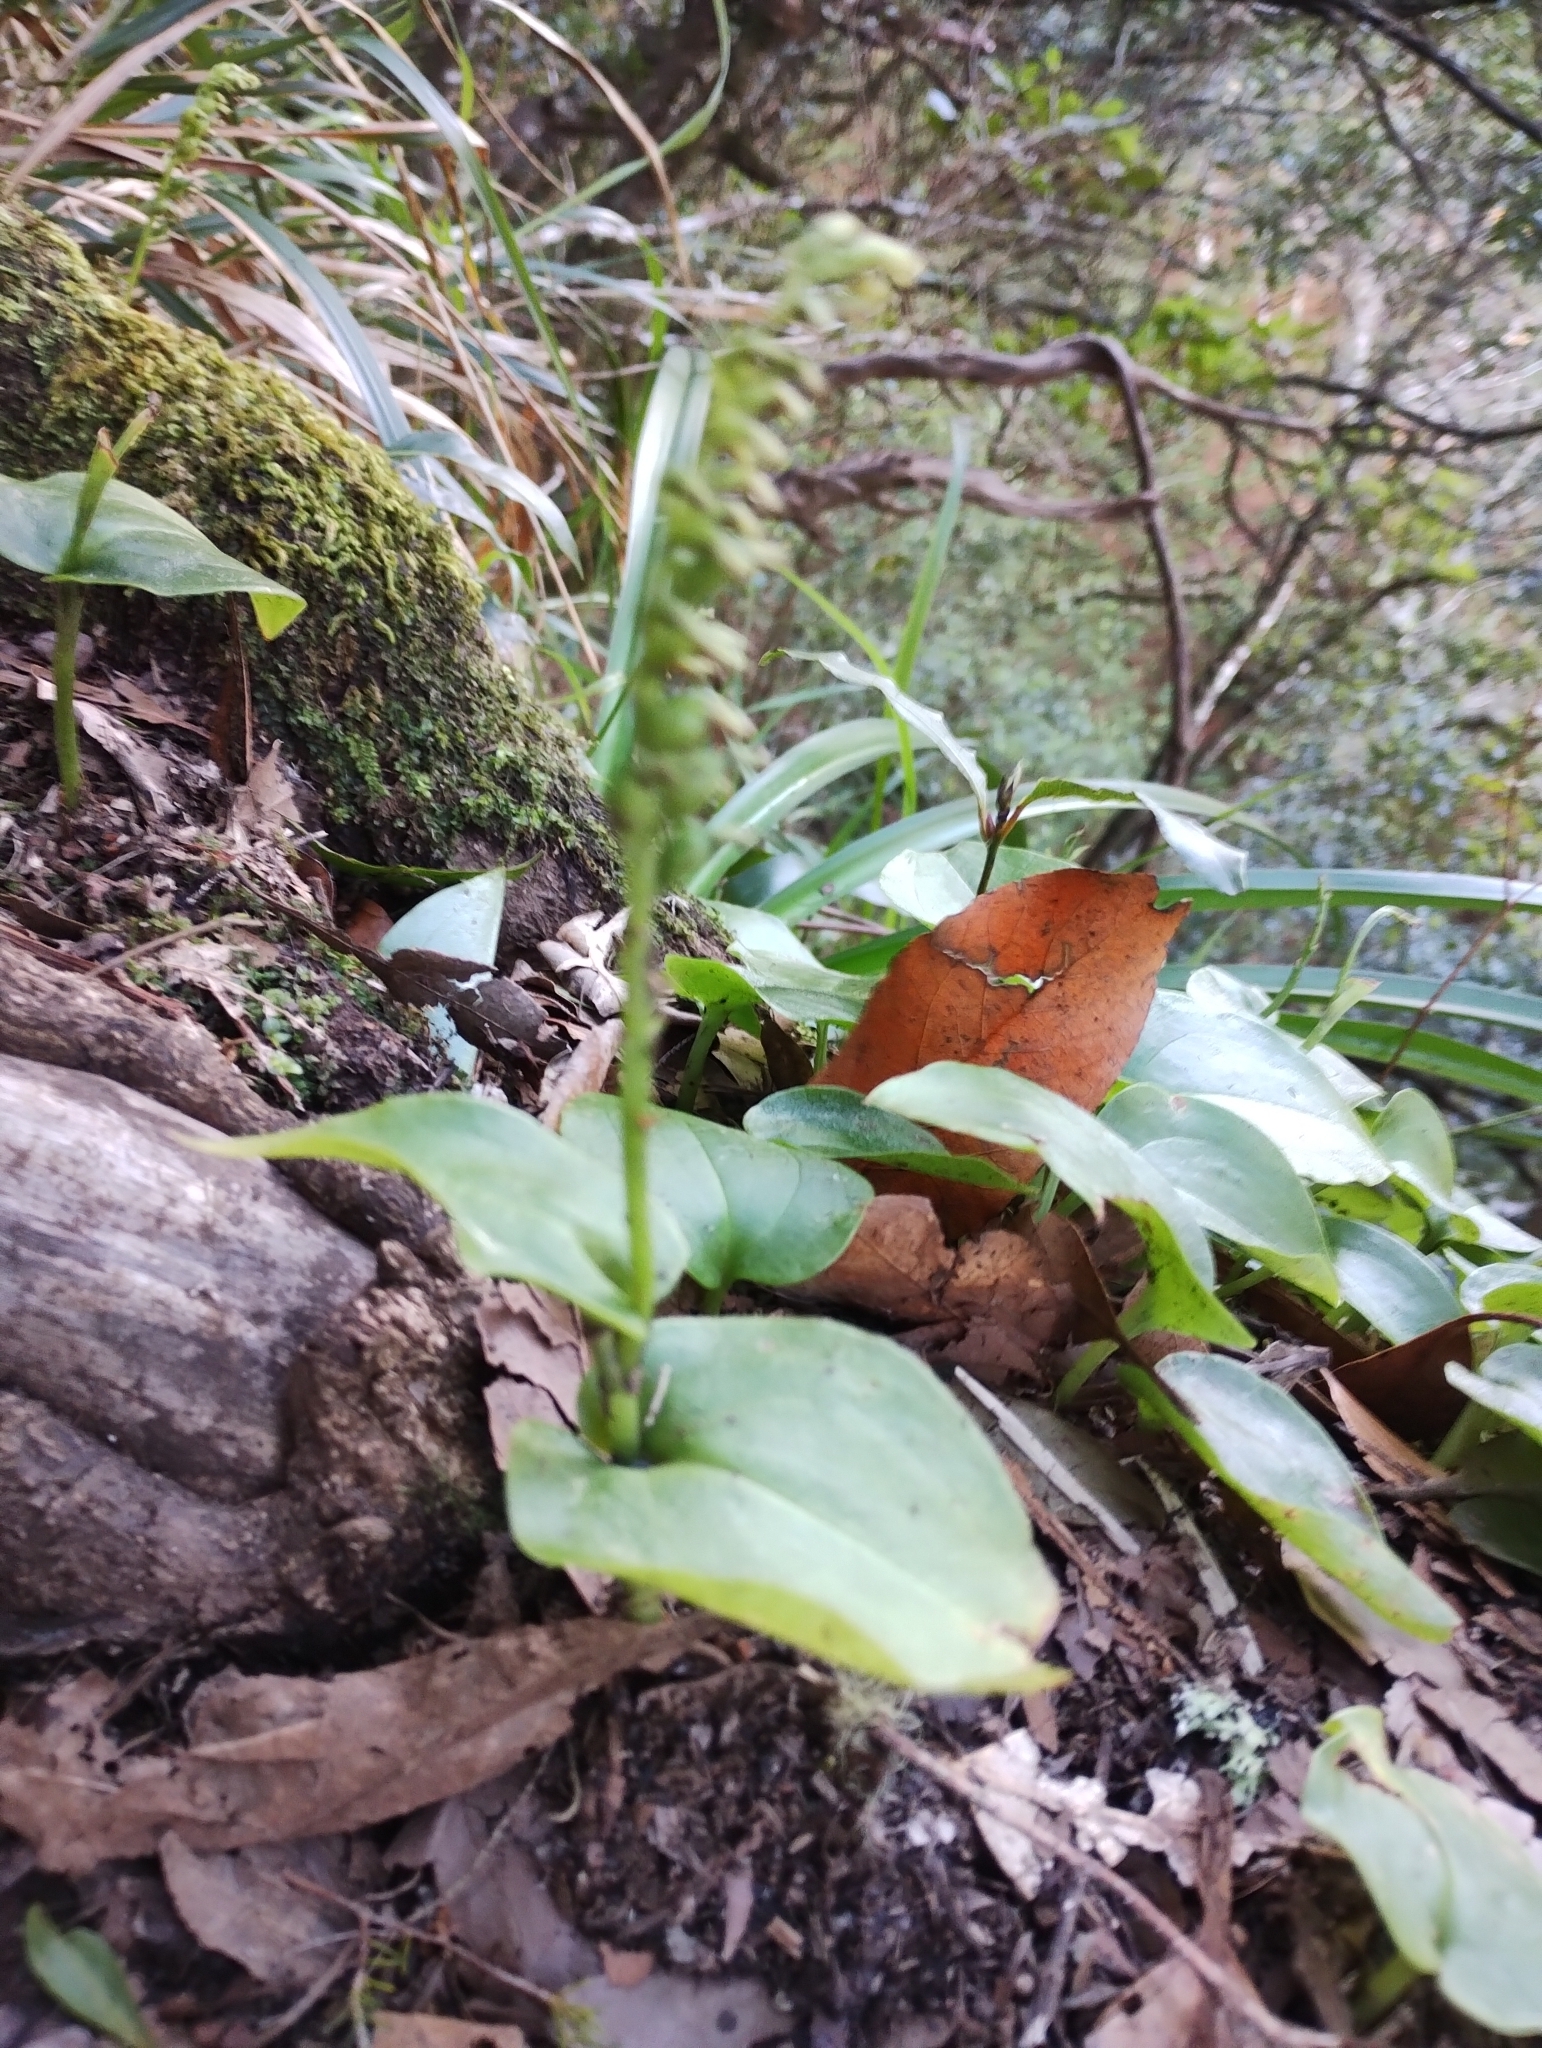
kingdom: Plantae
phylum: Tracheophyta
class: Liliopsida
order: Asparagales
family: Orchidaceae
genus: Gennaria
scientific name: Gennaria diphylla
